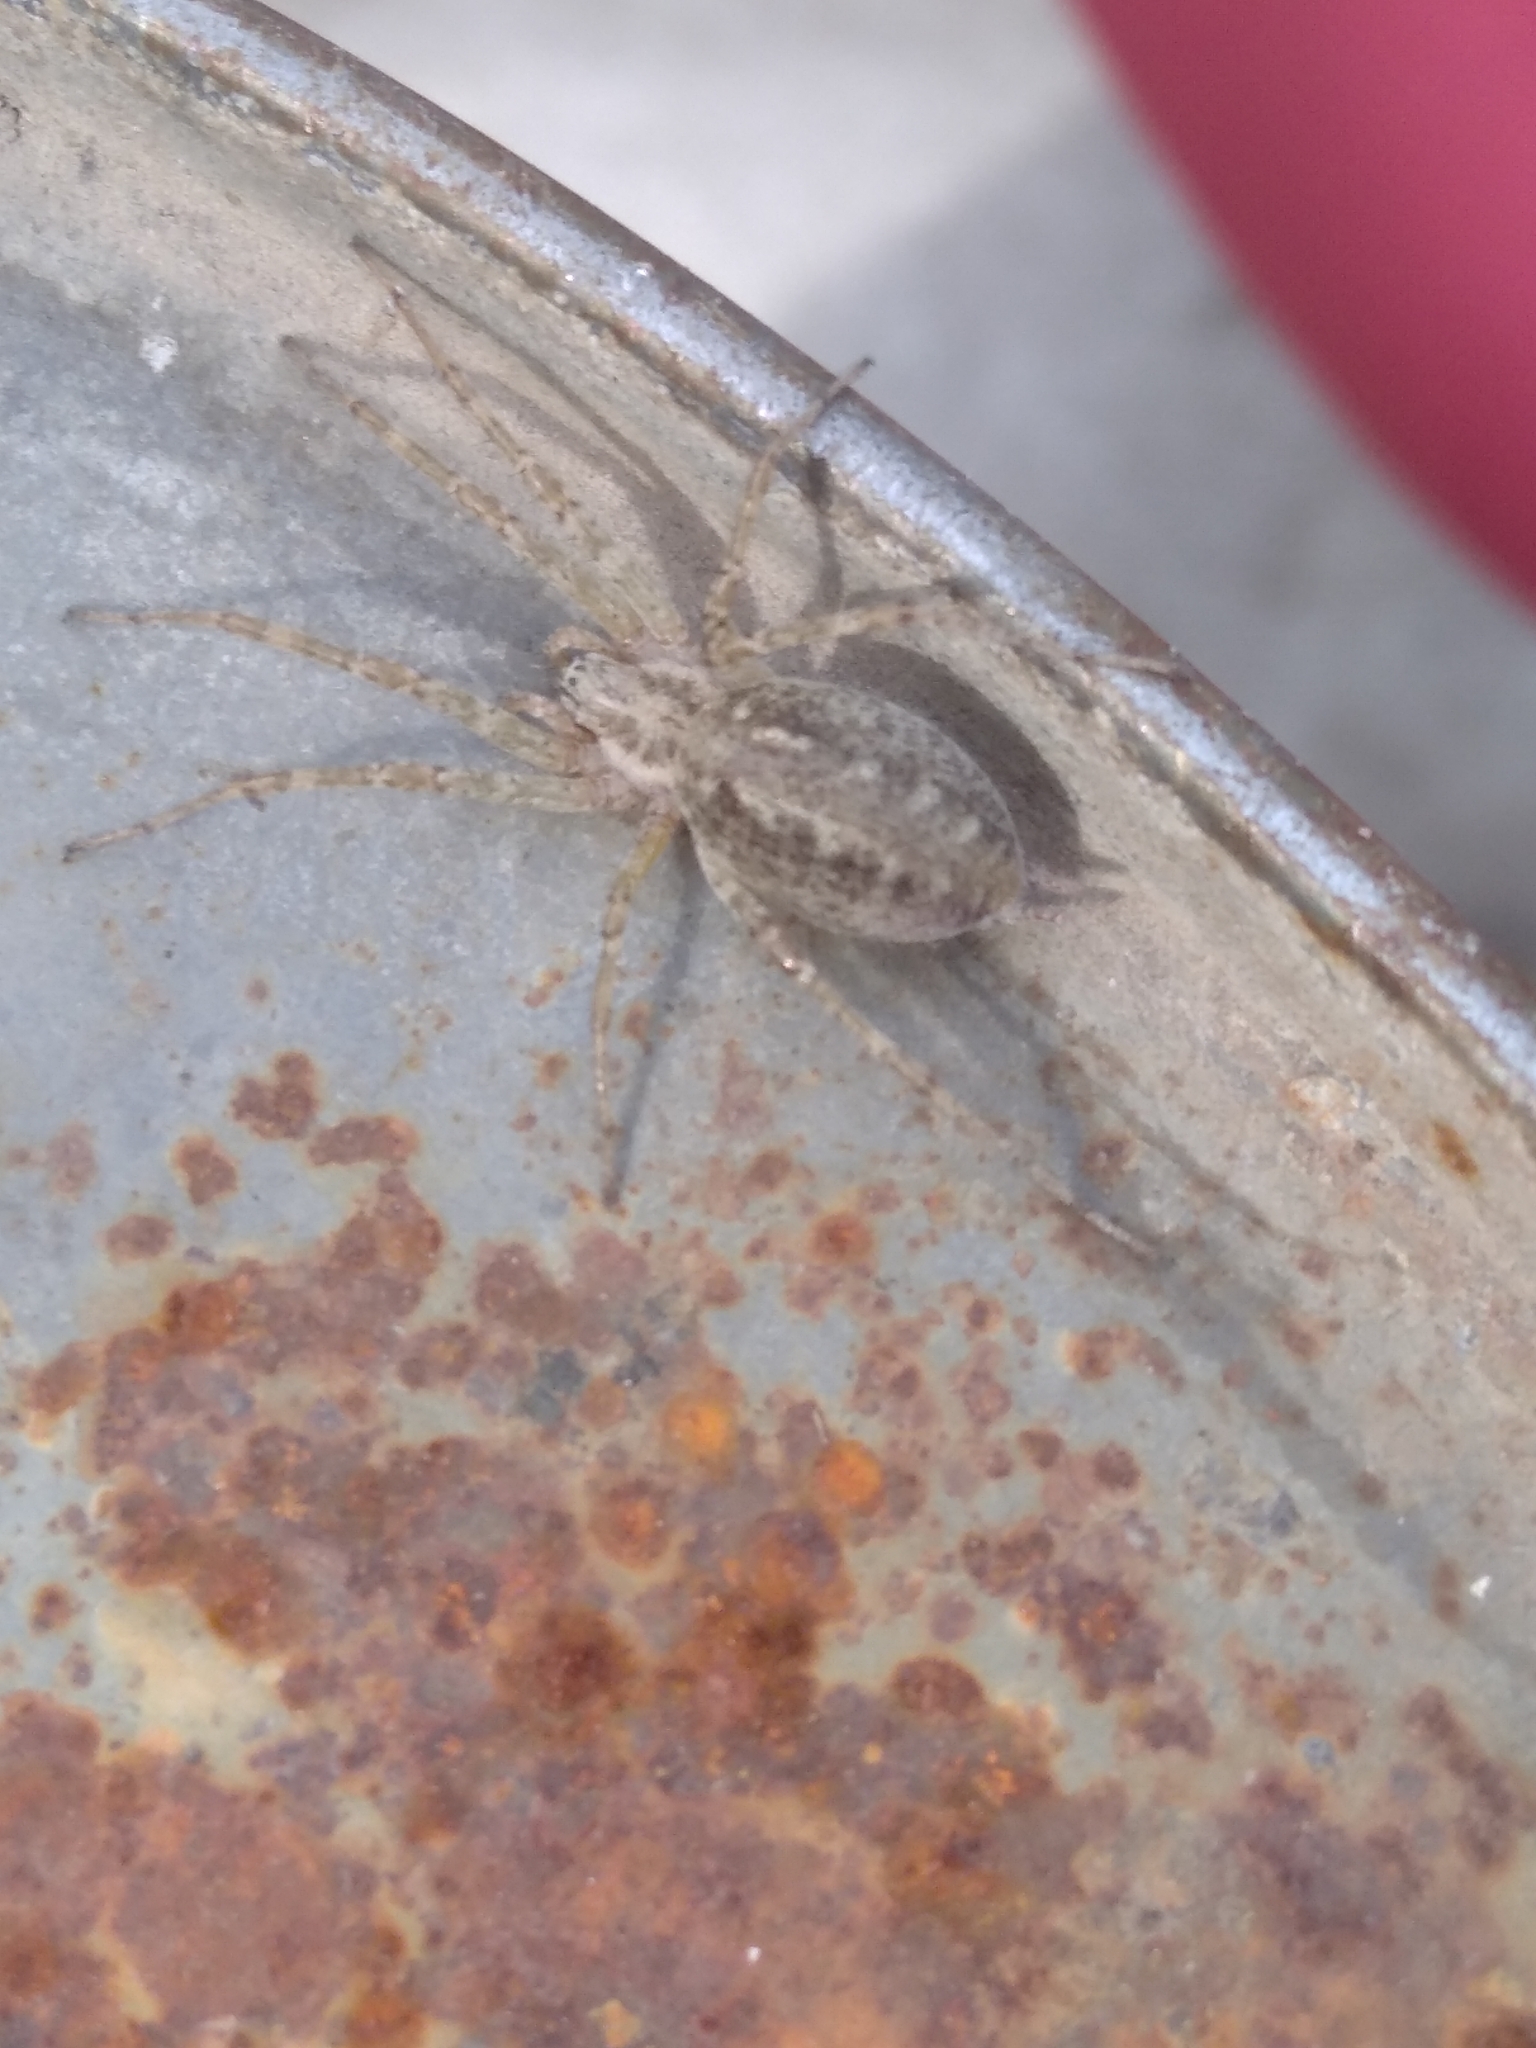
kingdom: Animalia
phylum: Arthropoda
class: Arachnida
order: Araneae
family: Agelenidae
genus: Allagelena
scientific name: Allagelena gracilens
